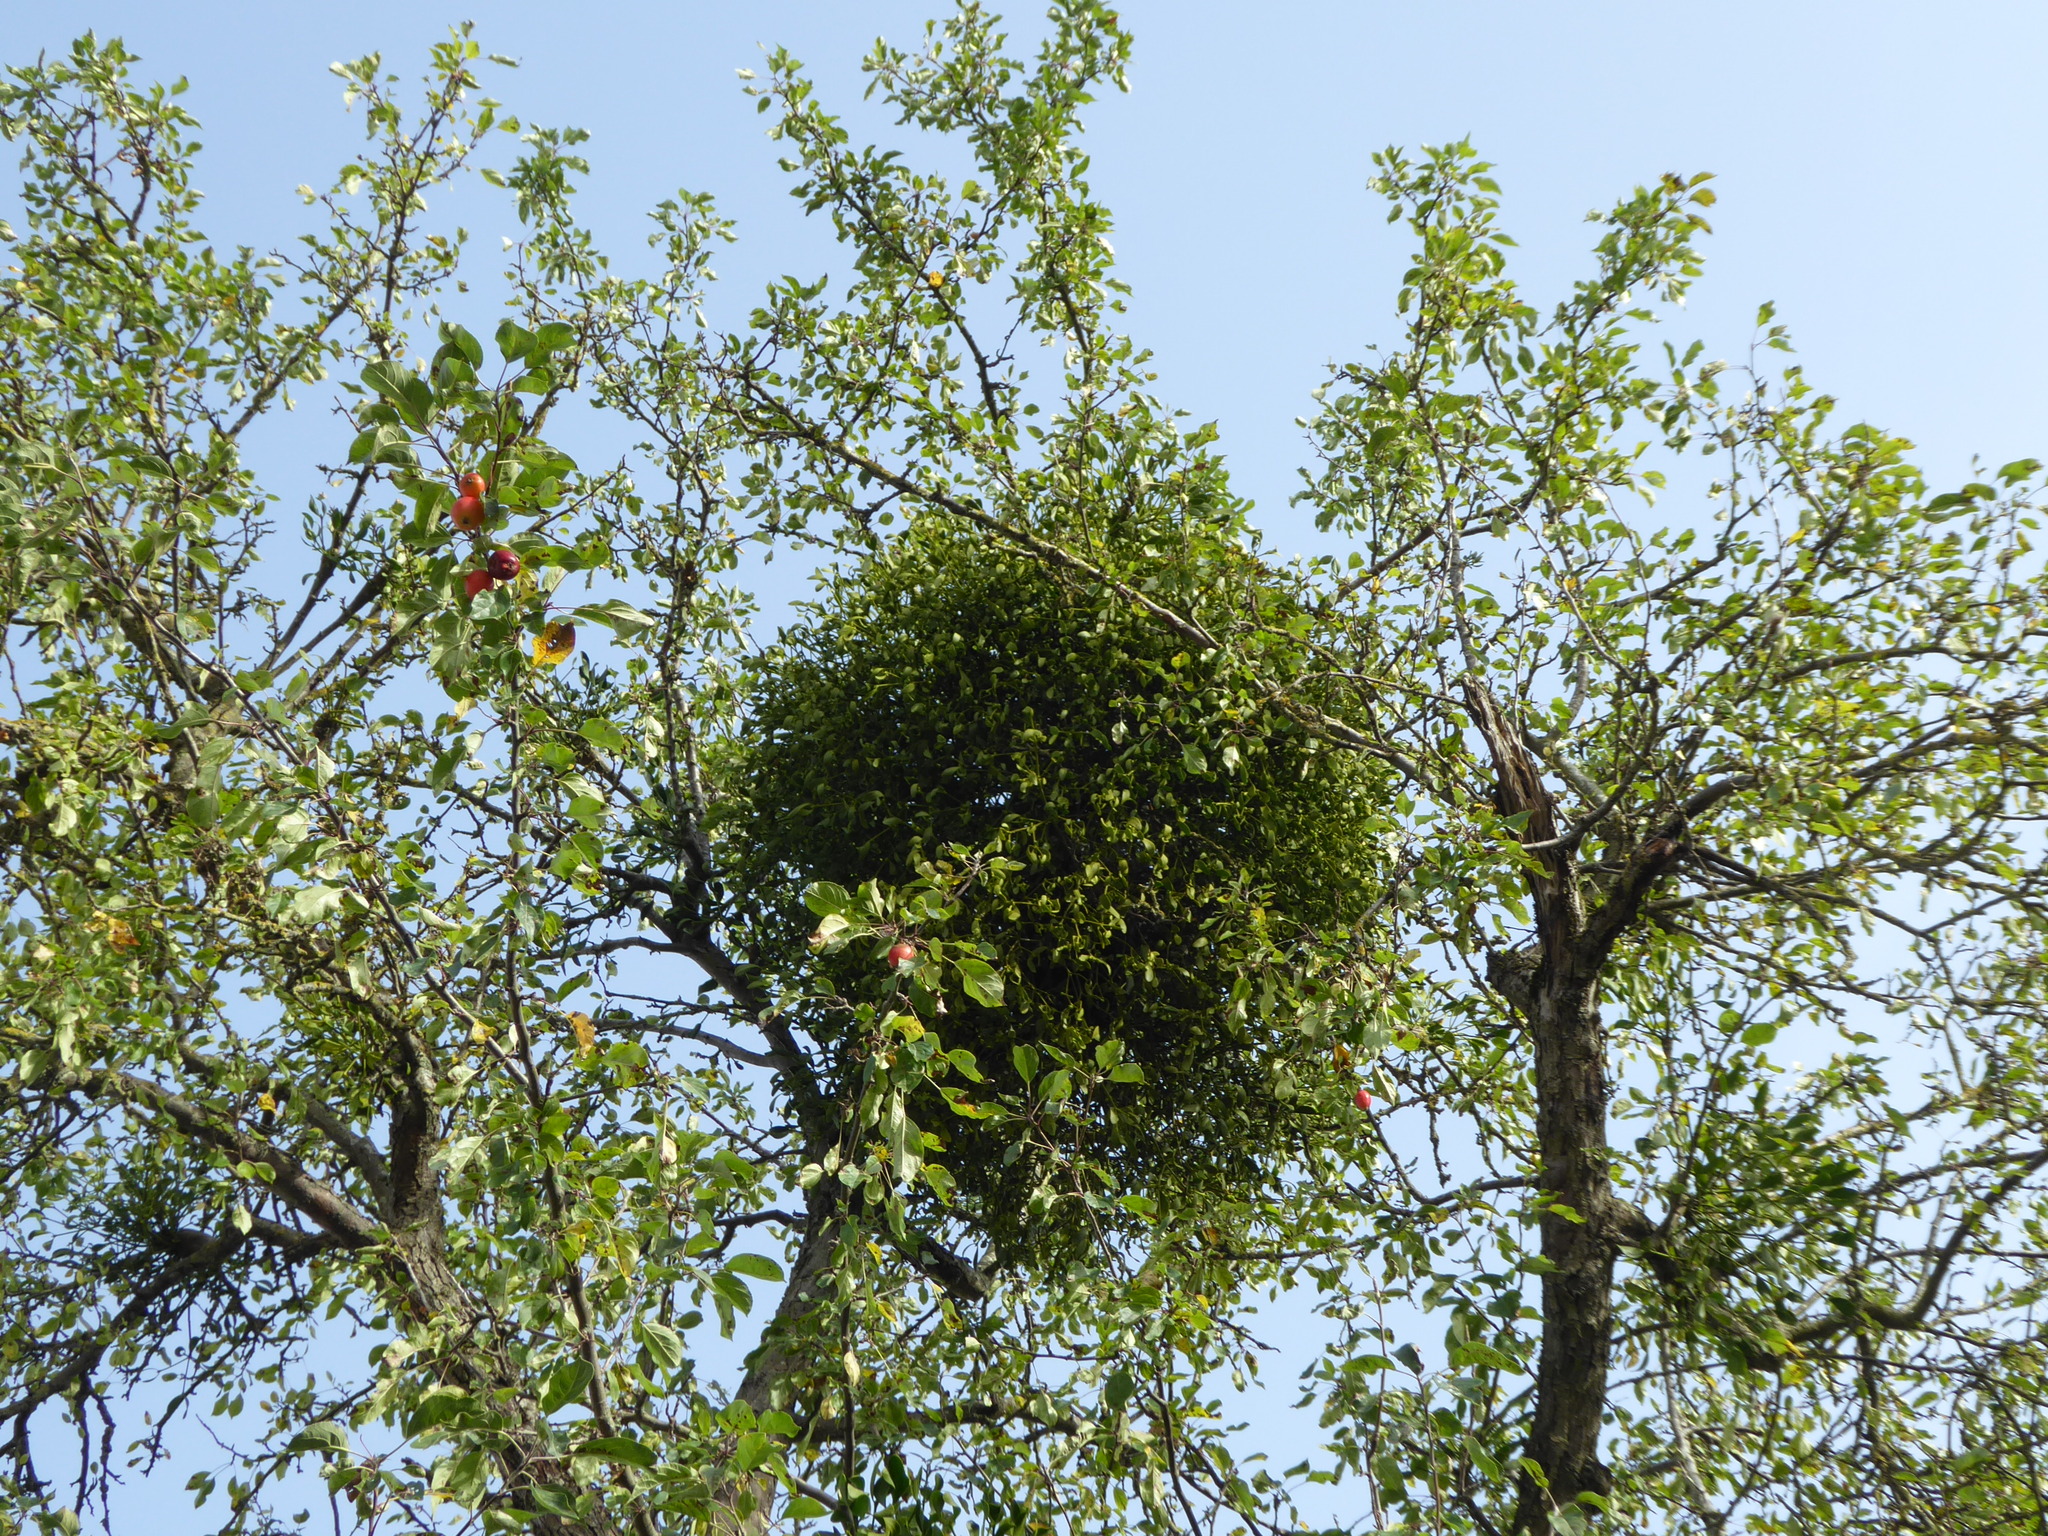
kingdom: Plantae
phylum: Tracheophyta
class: Magnoliopsida
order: Santalales
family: Viscaceae
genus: Viscum
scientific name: Viscum album
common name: Mistletoe
